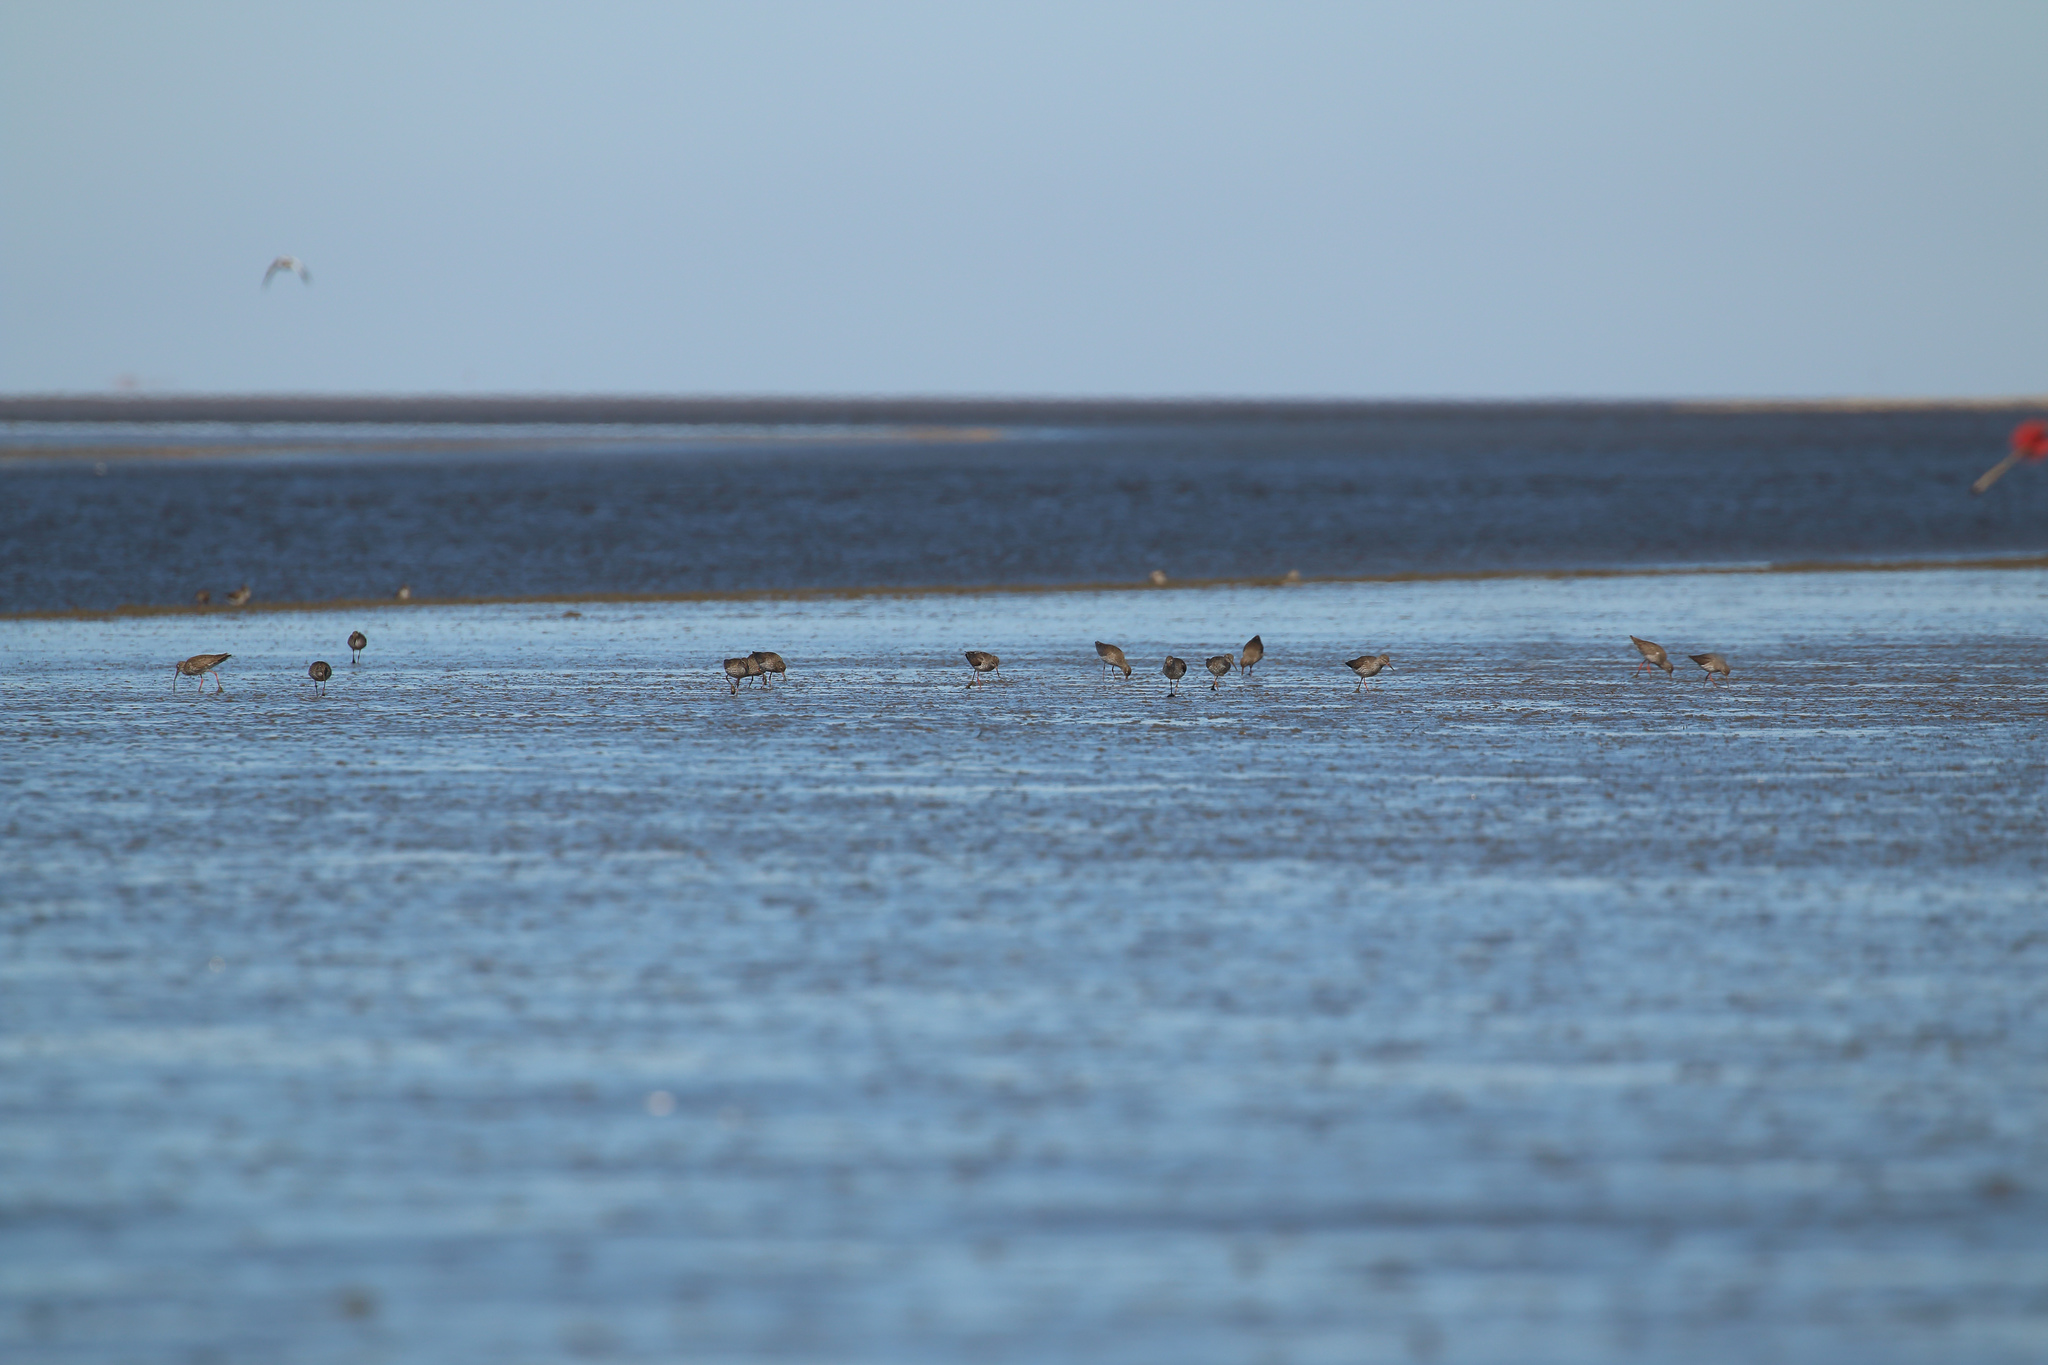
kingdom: Animalia
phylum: Chordata
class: Aves
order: Charadriiformes
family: Scolopacidae
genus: Tringa
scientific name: Tringa totanus
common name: Common redshank
